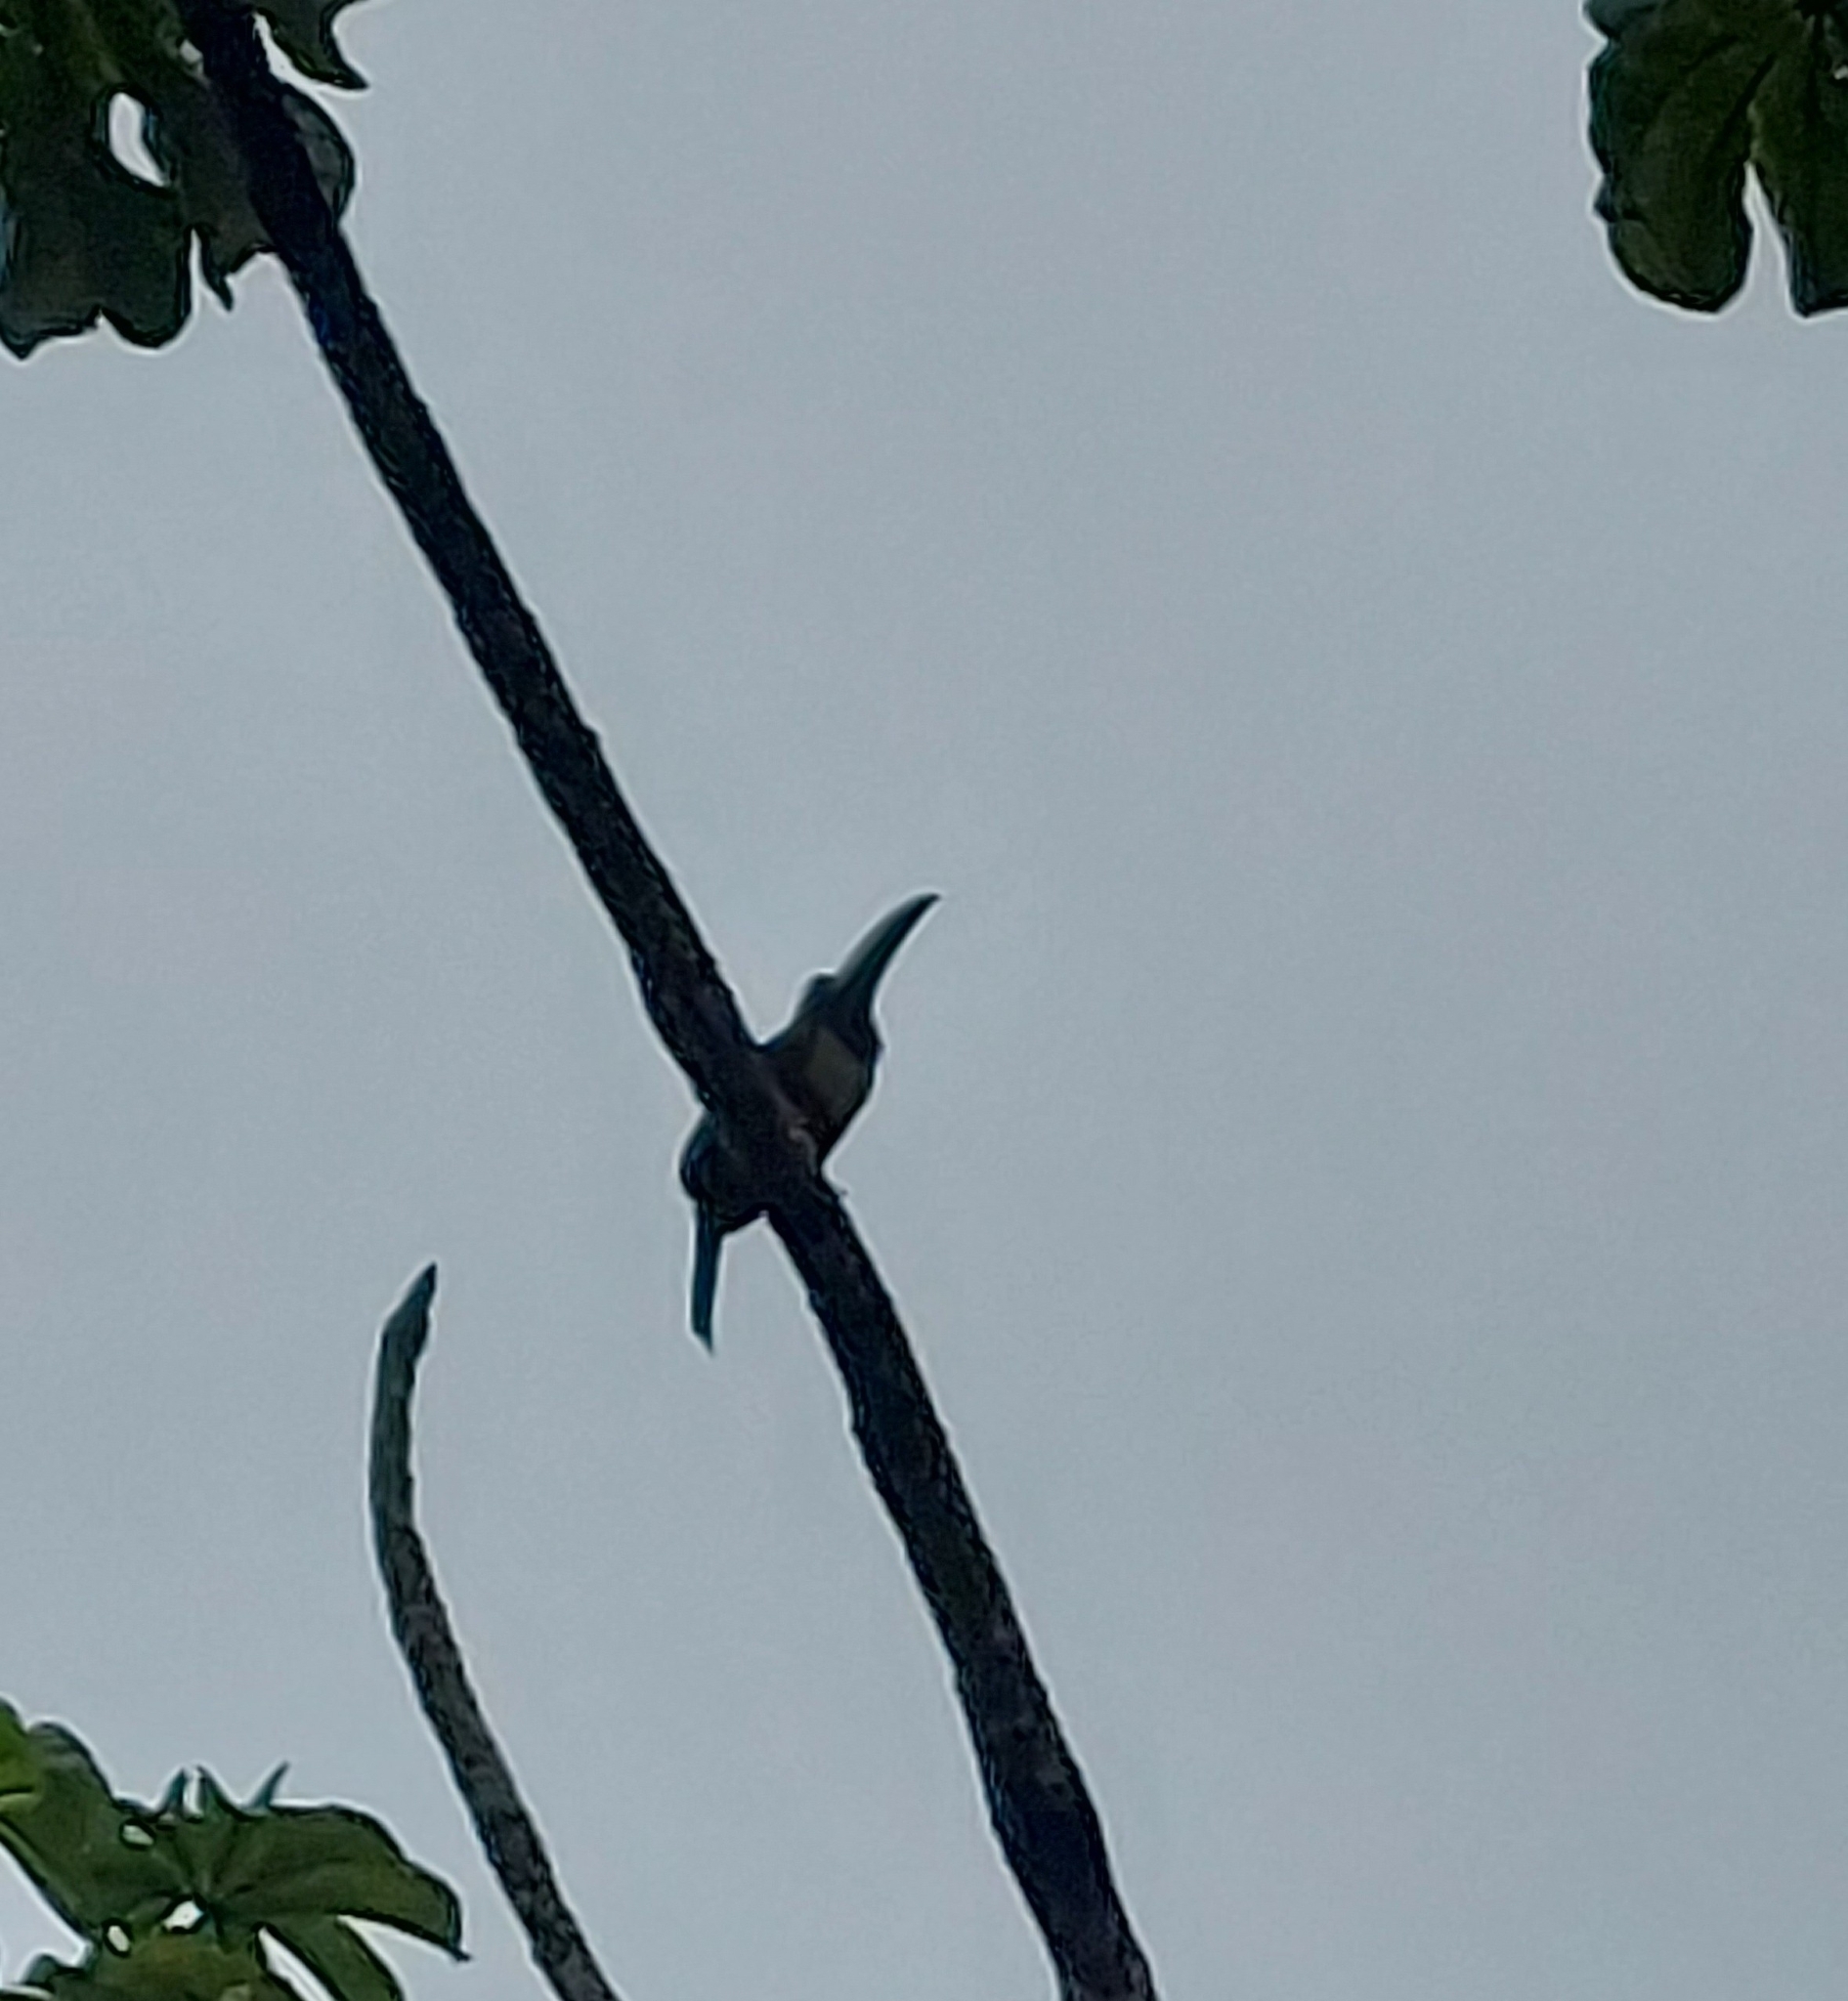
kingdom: Animalia
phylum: Chordata
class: Aves
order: Piciformes
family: Ramphastidae
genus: Pteroglossus
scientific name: Pteroglossus aracari
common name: Black-necked aracari
